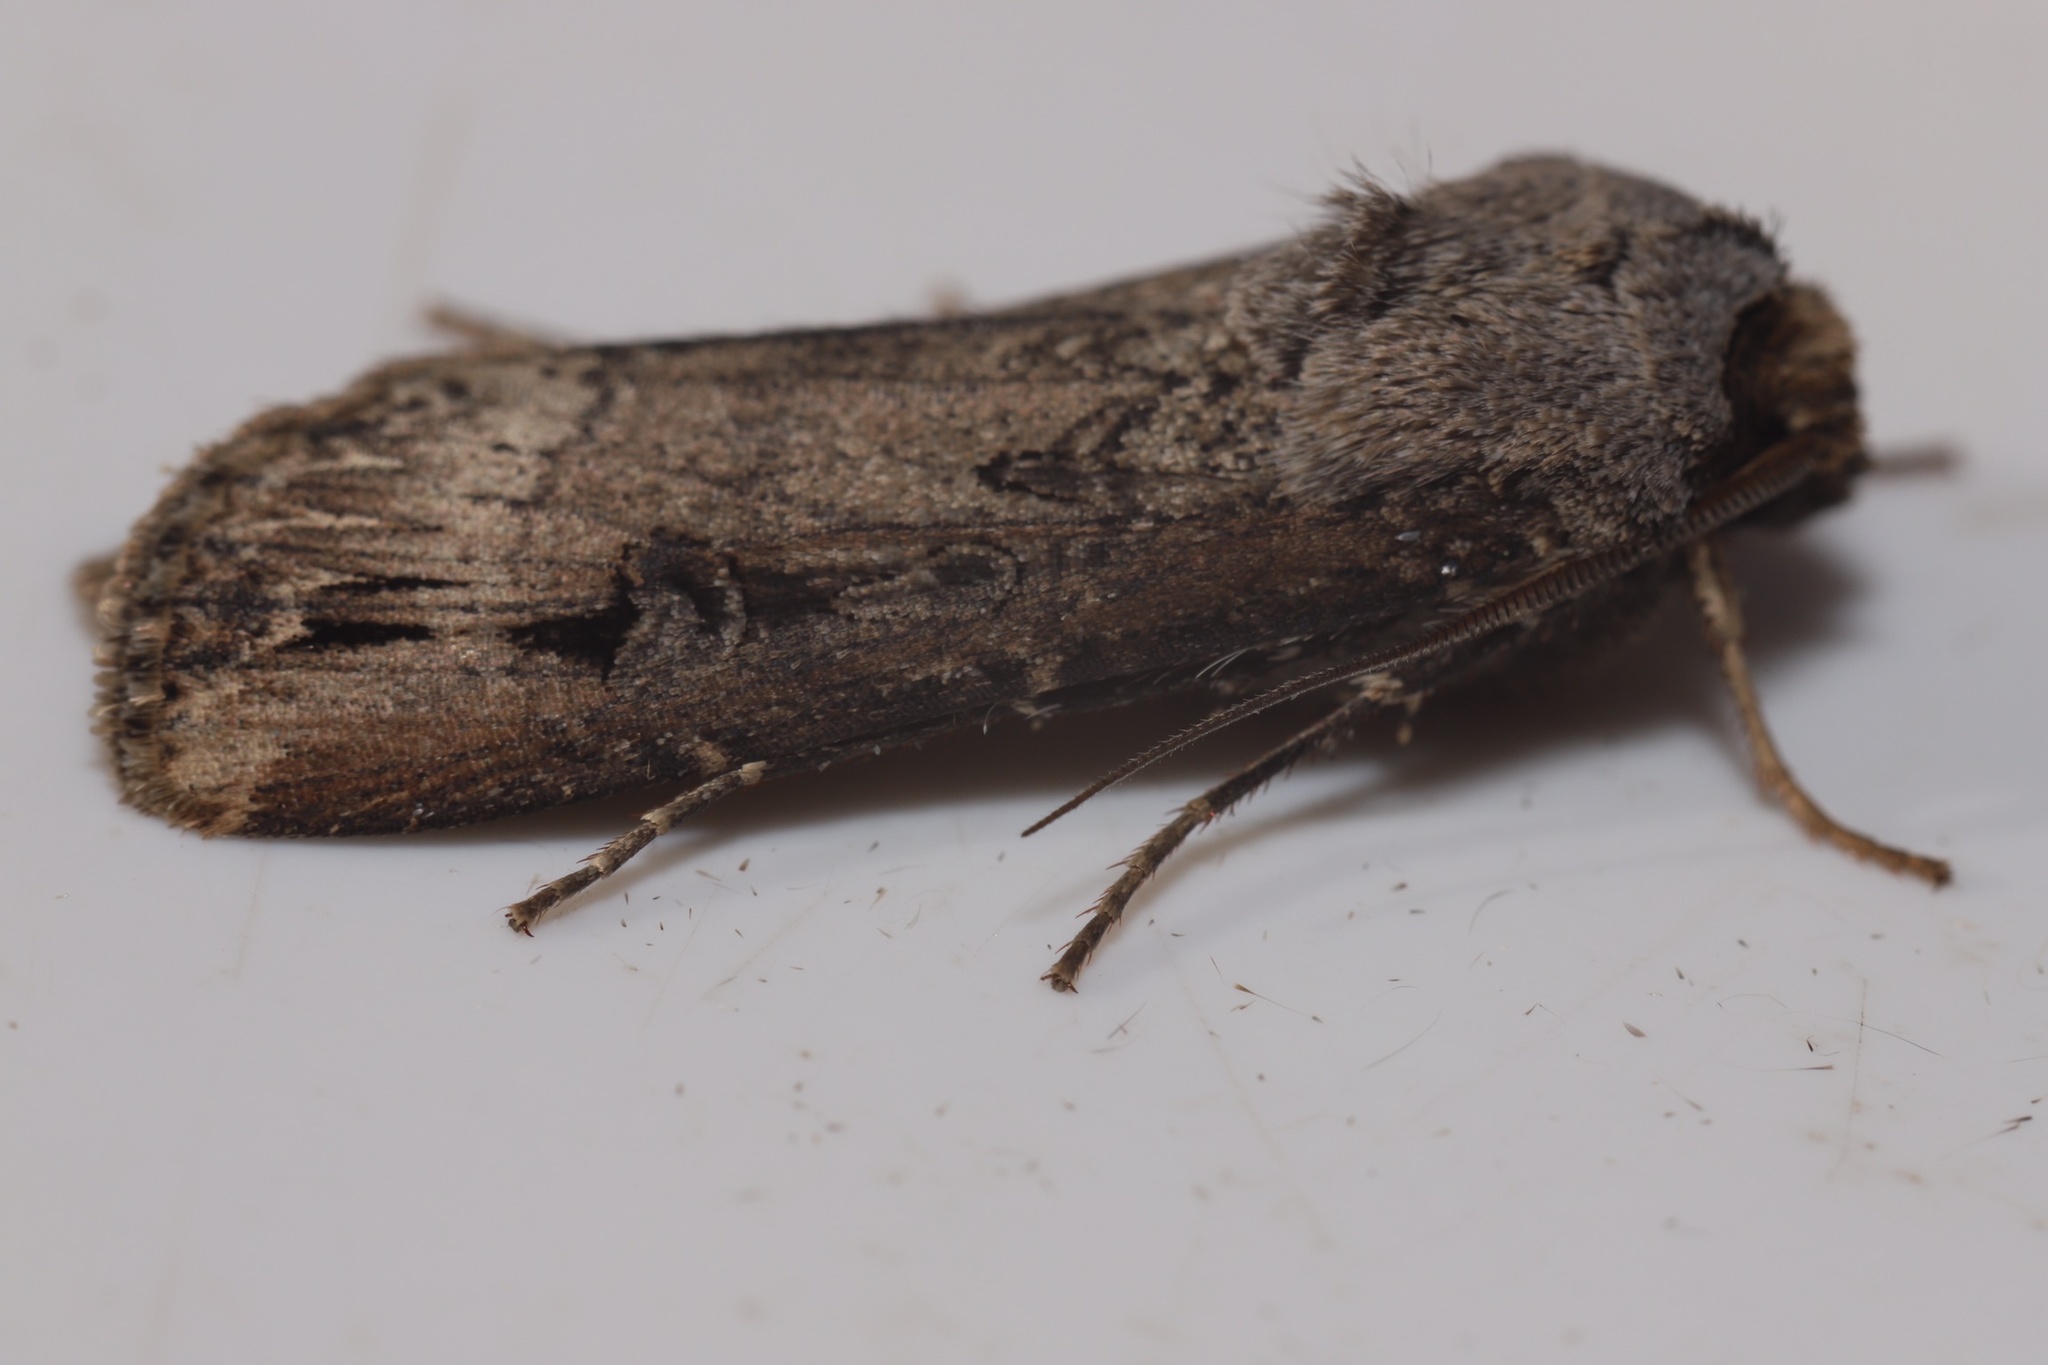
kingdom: Animalia
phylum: Arthropoda
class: Insecta
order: Lepidoptera
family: Noctuidae
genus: Agrotis
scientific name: Agrotis ipsilon
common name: Dark sword-grass
